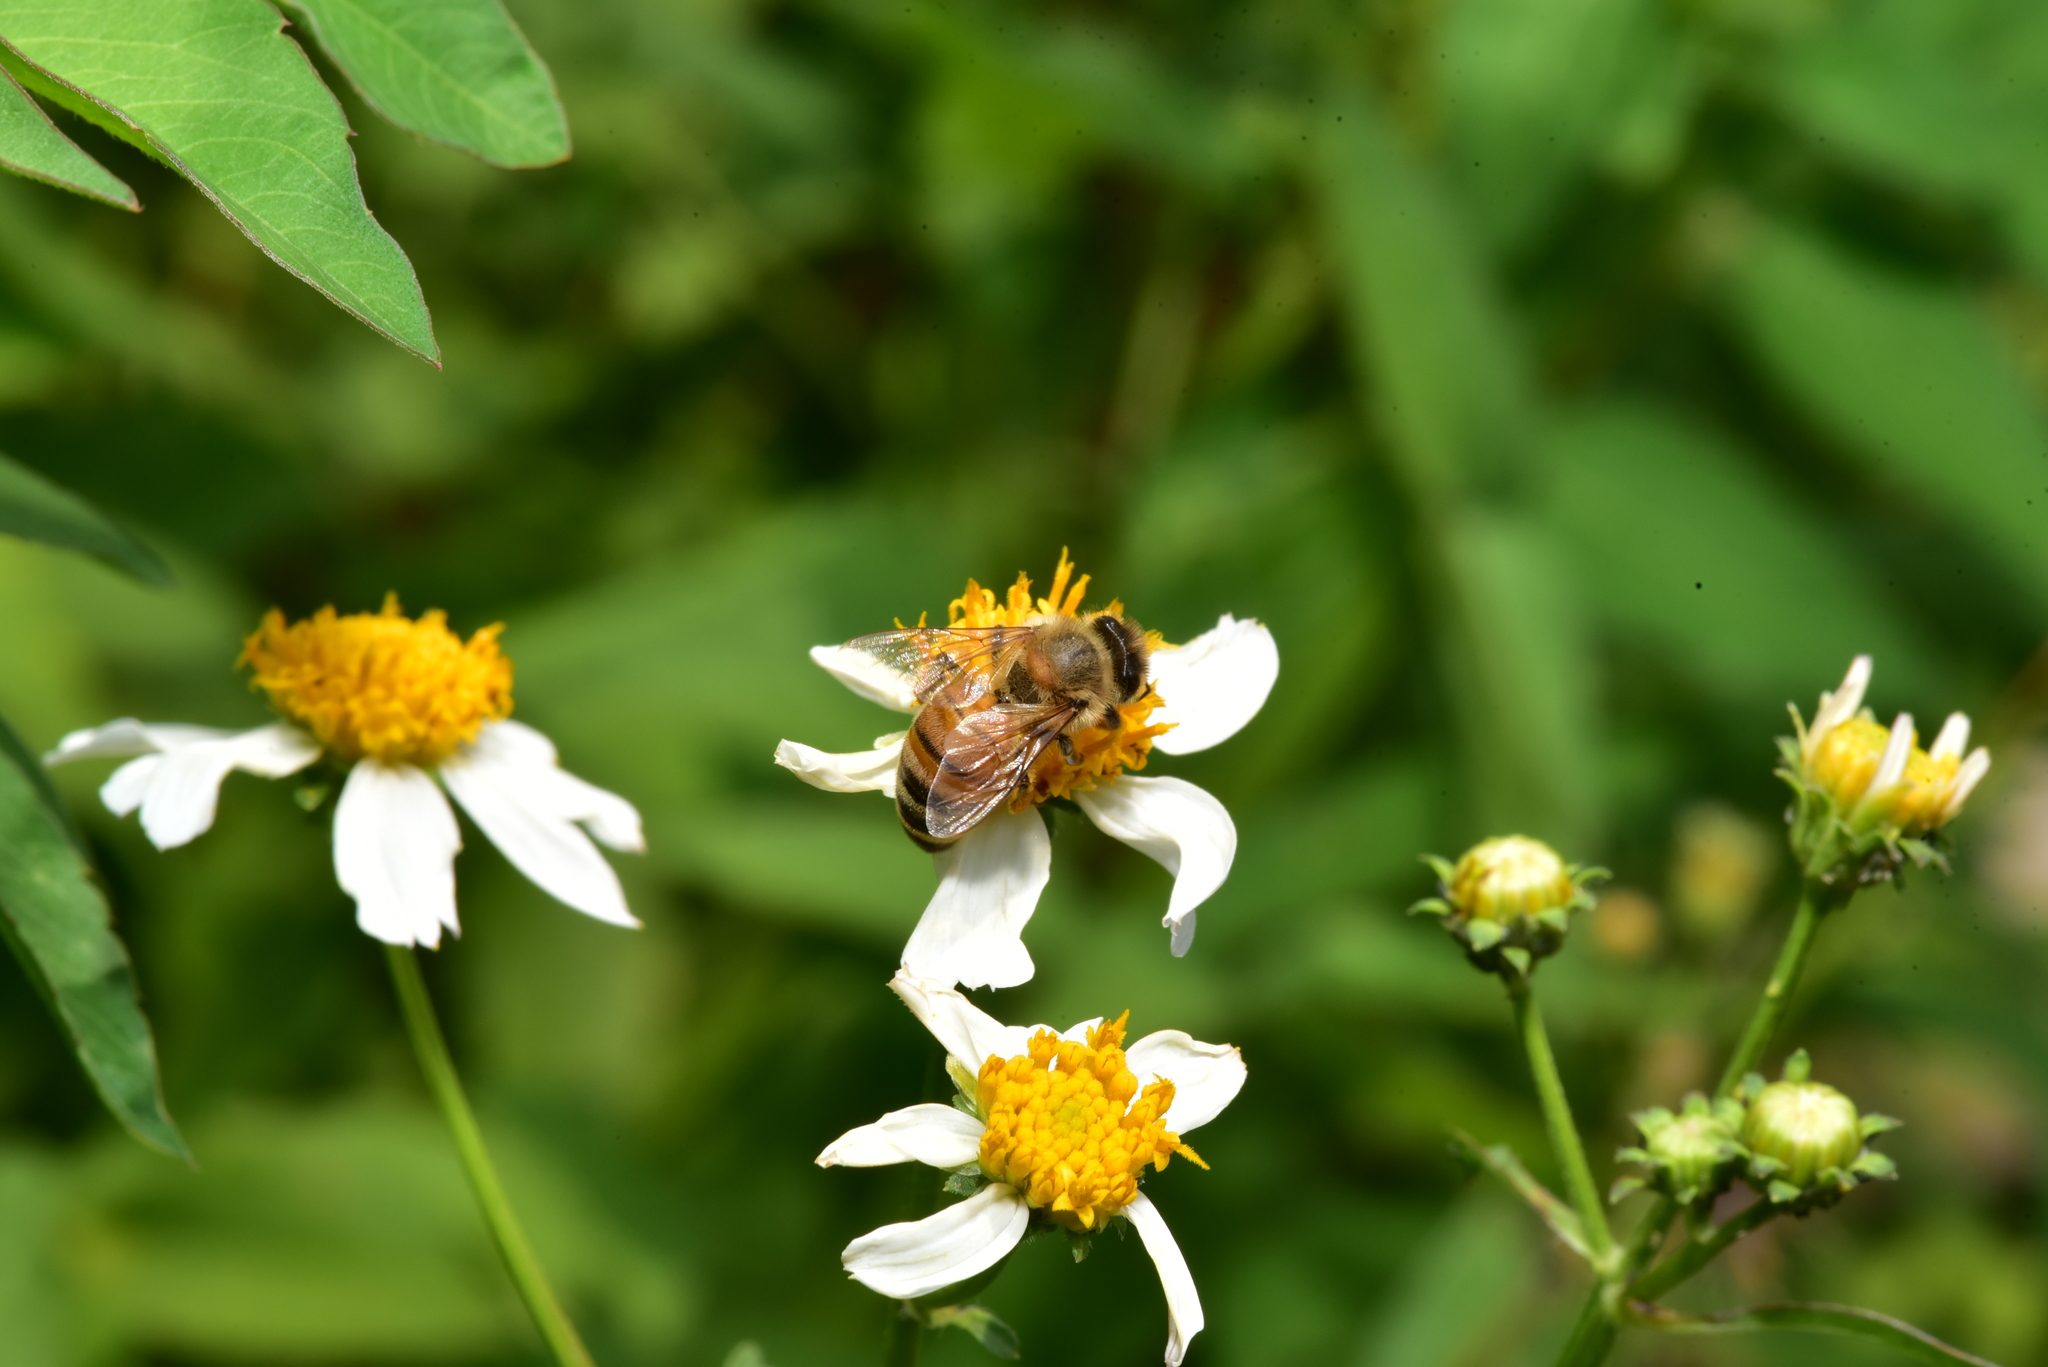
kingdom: Animalia
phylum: Arthropoda
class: Insecta
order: Hymenoptera
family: Apidae
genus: Apis
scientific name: Apis mellifera
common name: Honey bee
